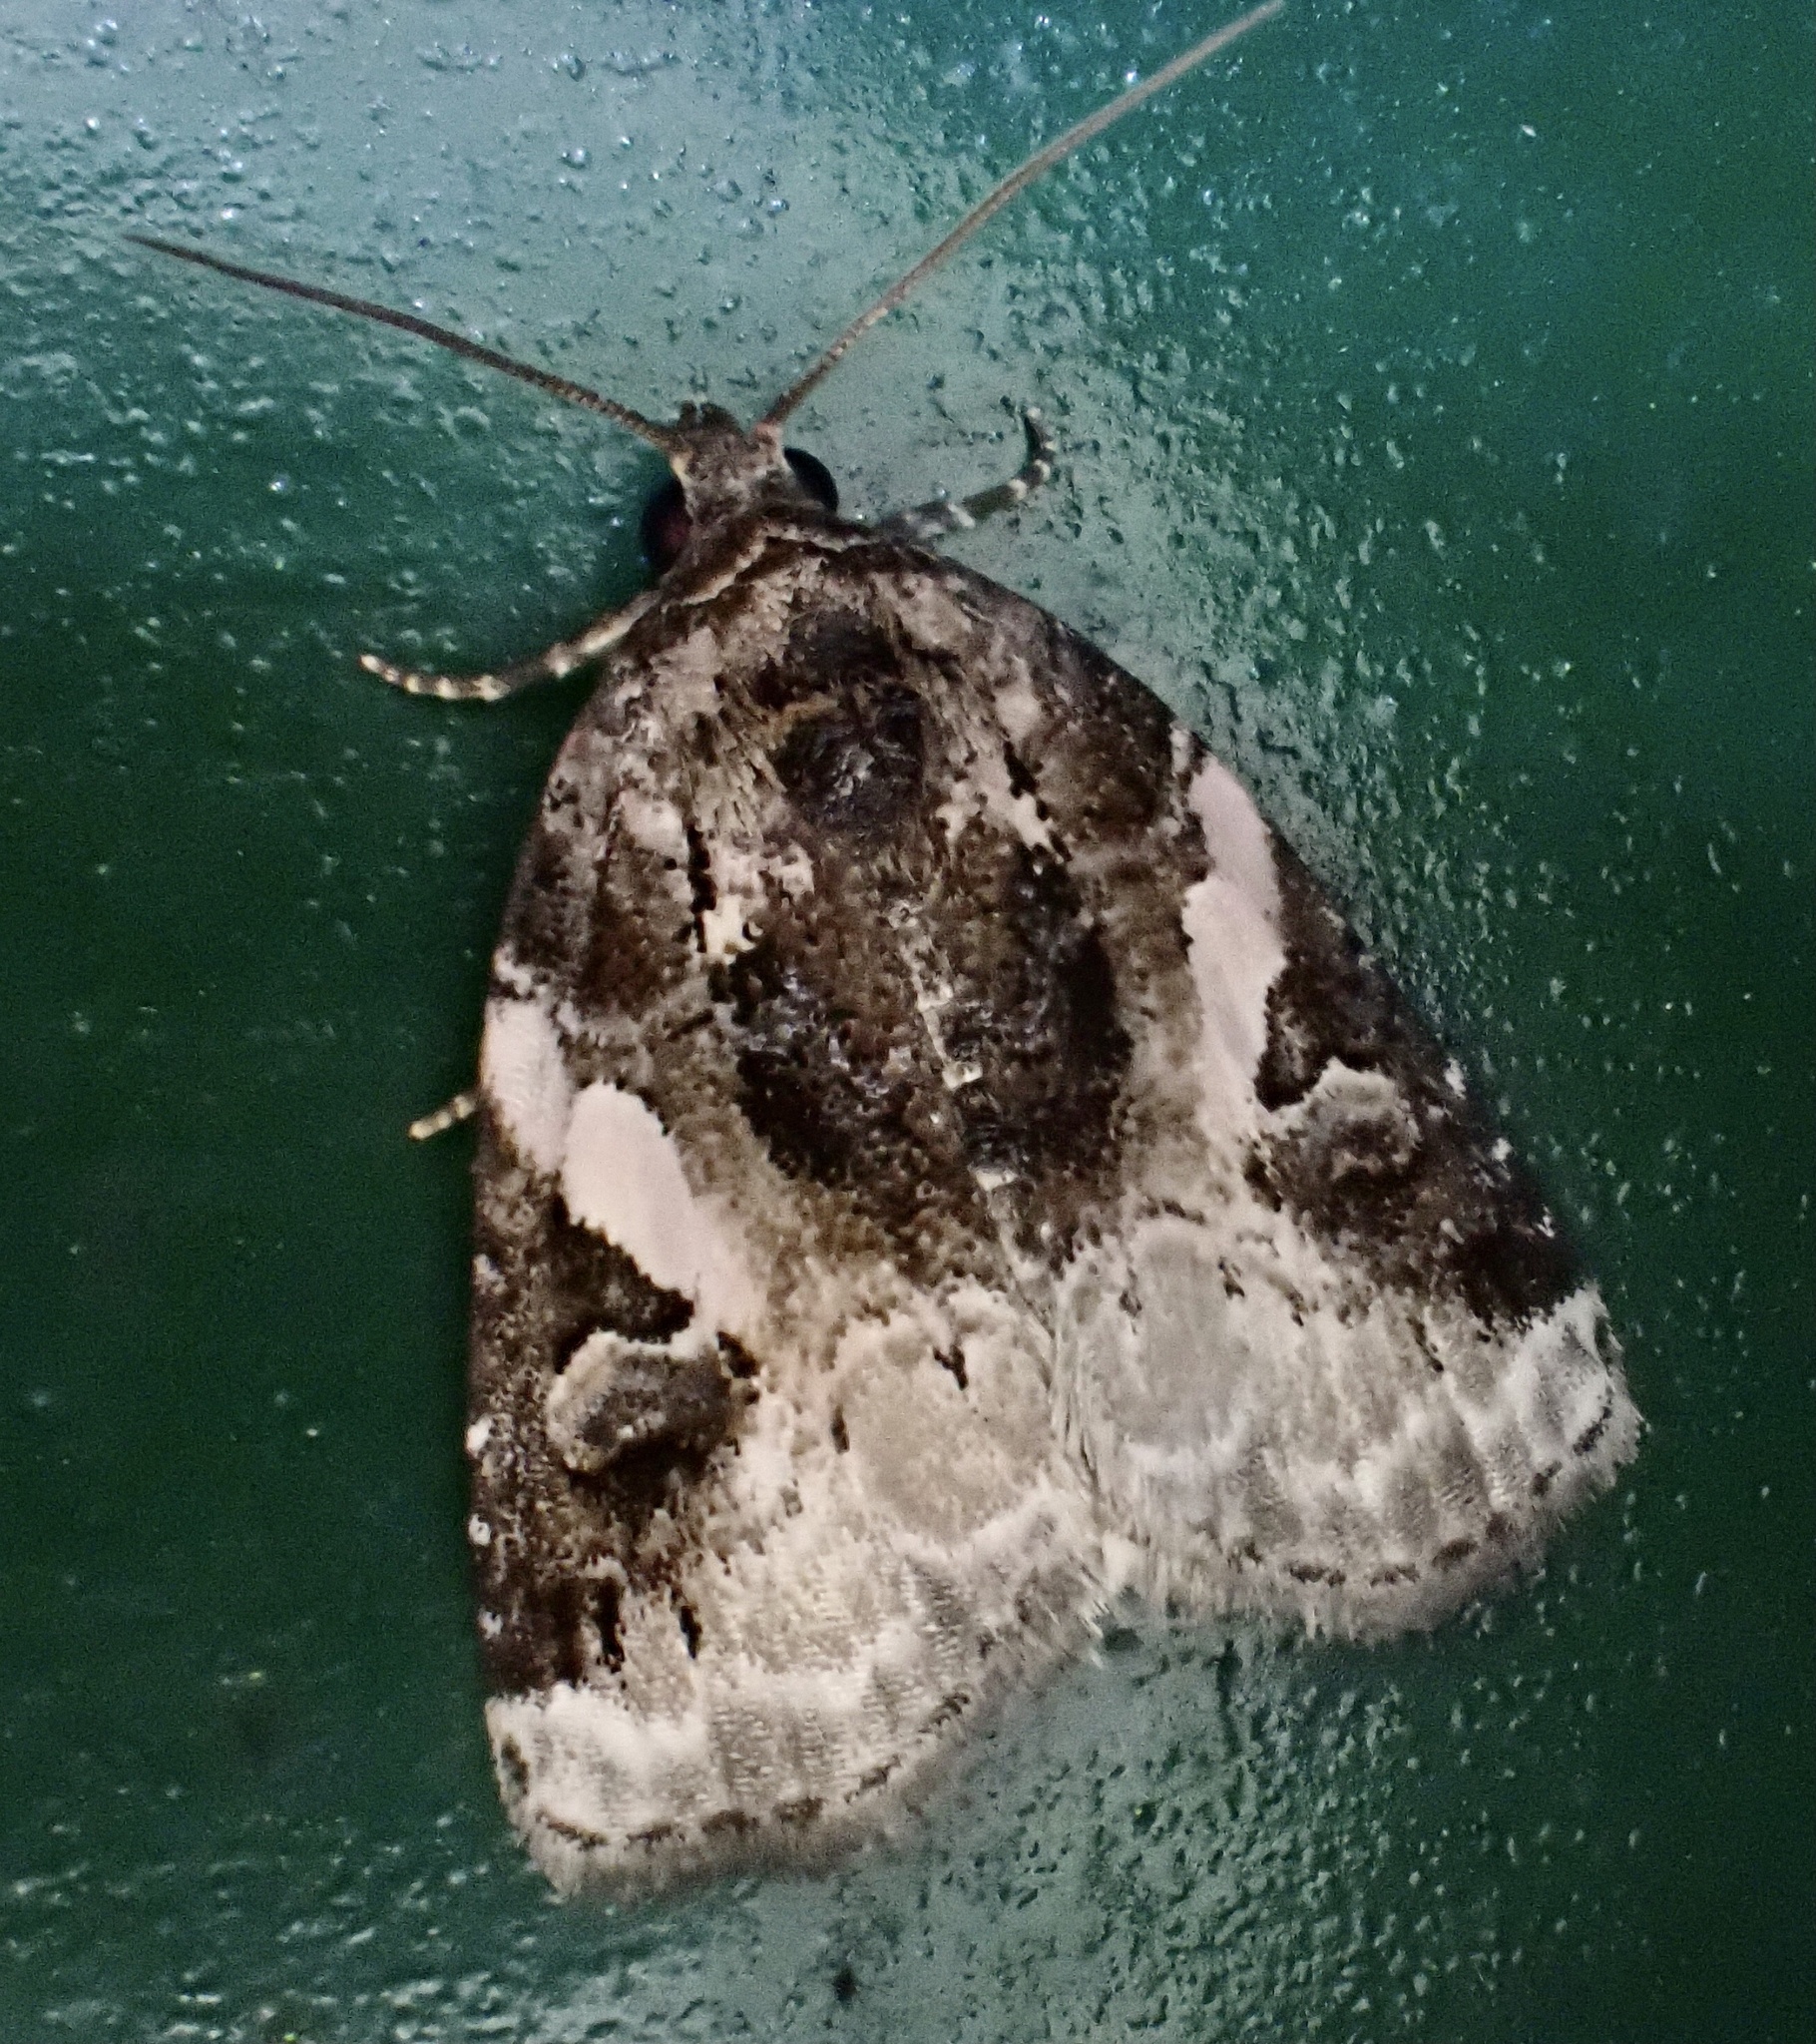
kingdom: Animalia
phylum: Arthropoda
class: Insecta
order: Lepidoptera
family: Noctuidae
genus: Pseudeustrotia
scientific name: Pseudeustrotia carneola
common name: Pink-barred lithacodia moth
